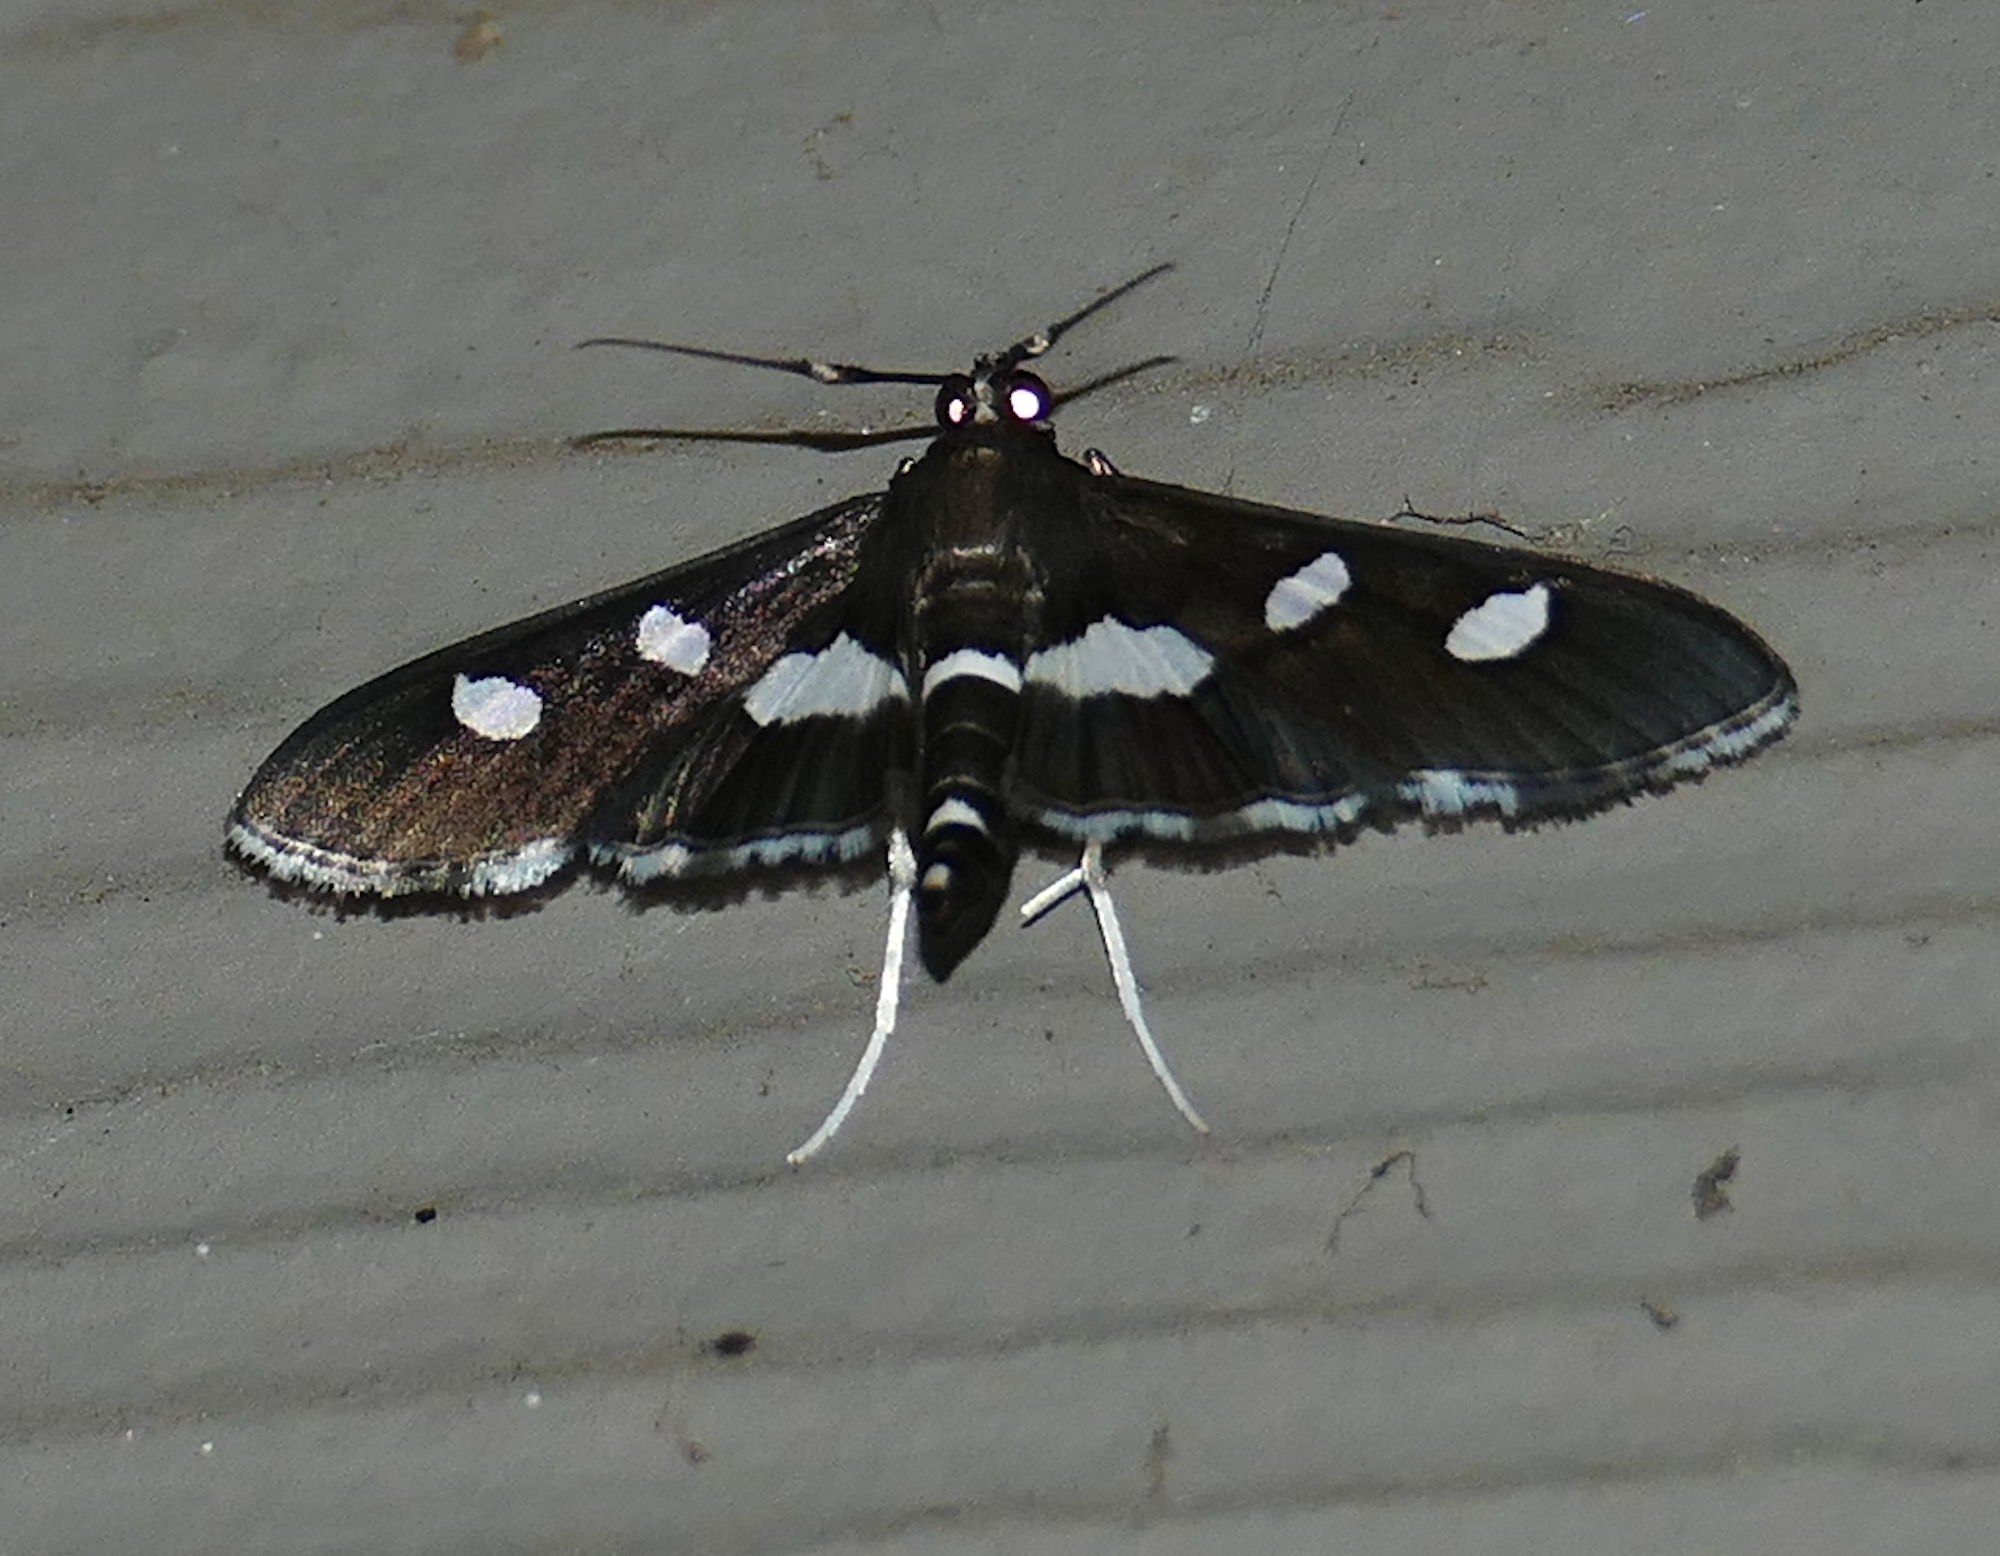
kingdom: Animalia
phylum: Arthropoda
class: Insecta
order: Lepidoptera
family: Crambidae
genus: Desmia
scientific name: Desmia
